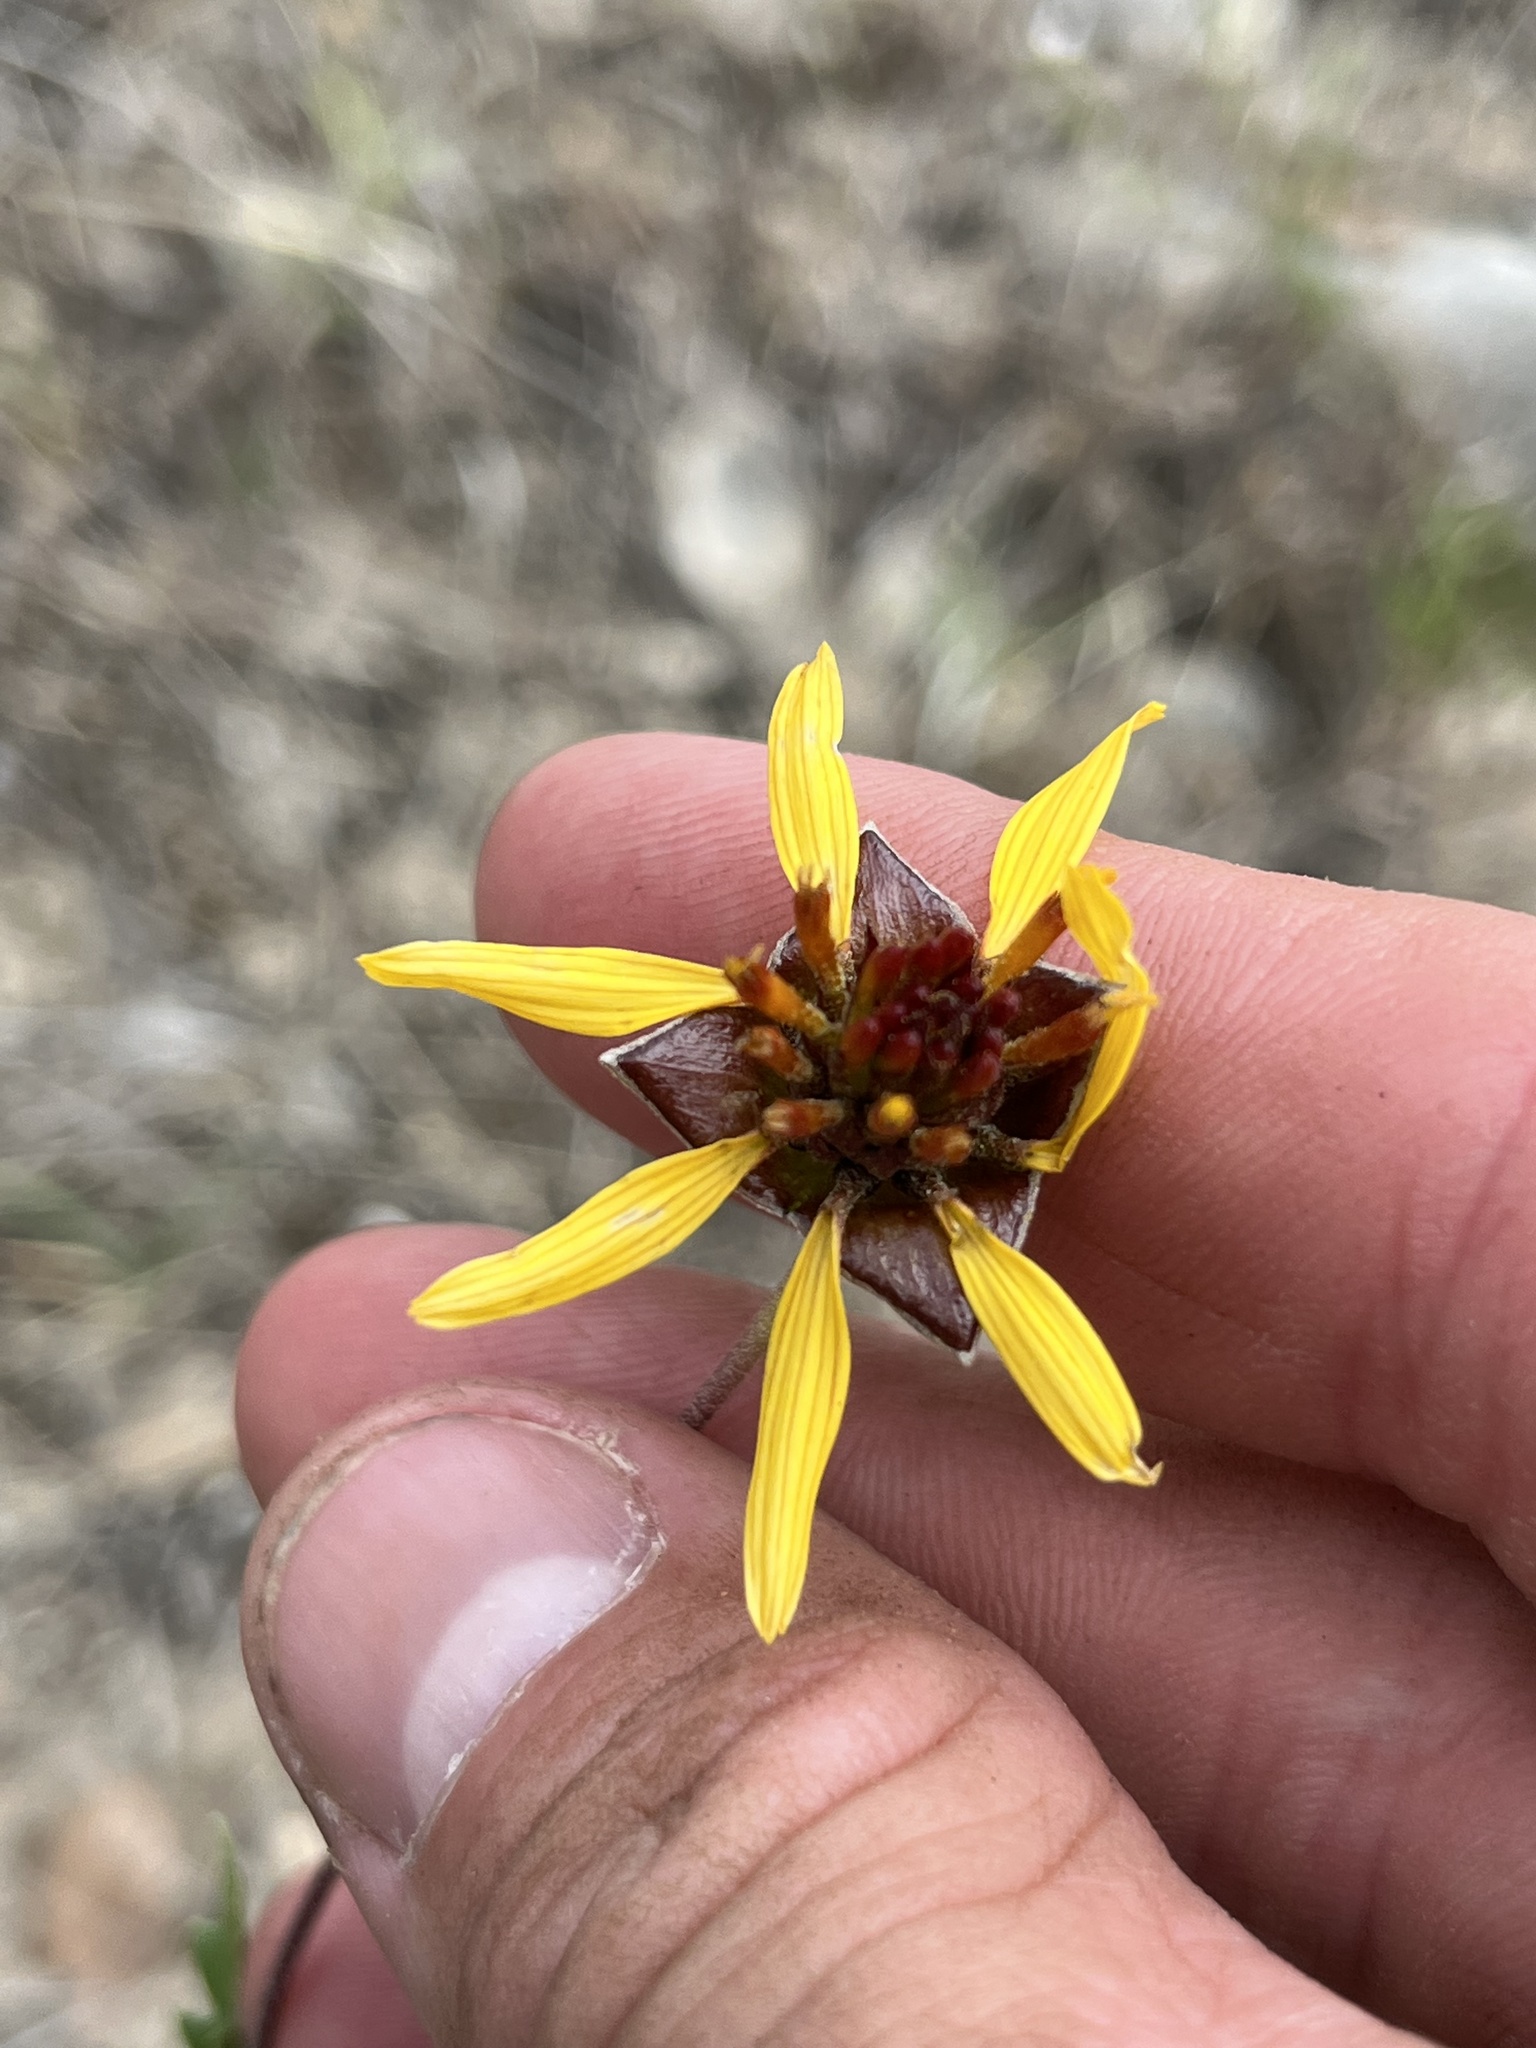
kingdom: Plantae
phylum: Tracheophyta
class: Magnoliopsida
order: Asterales
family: Asteraceae
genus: Tetragonotheca
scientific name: Tetragonotheca texana
